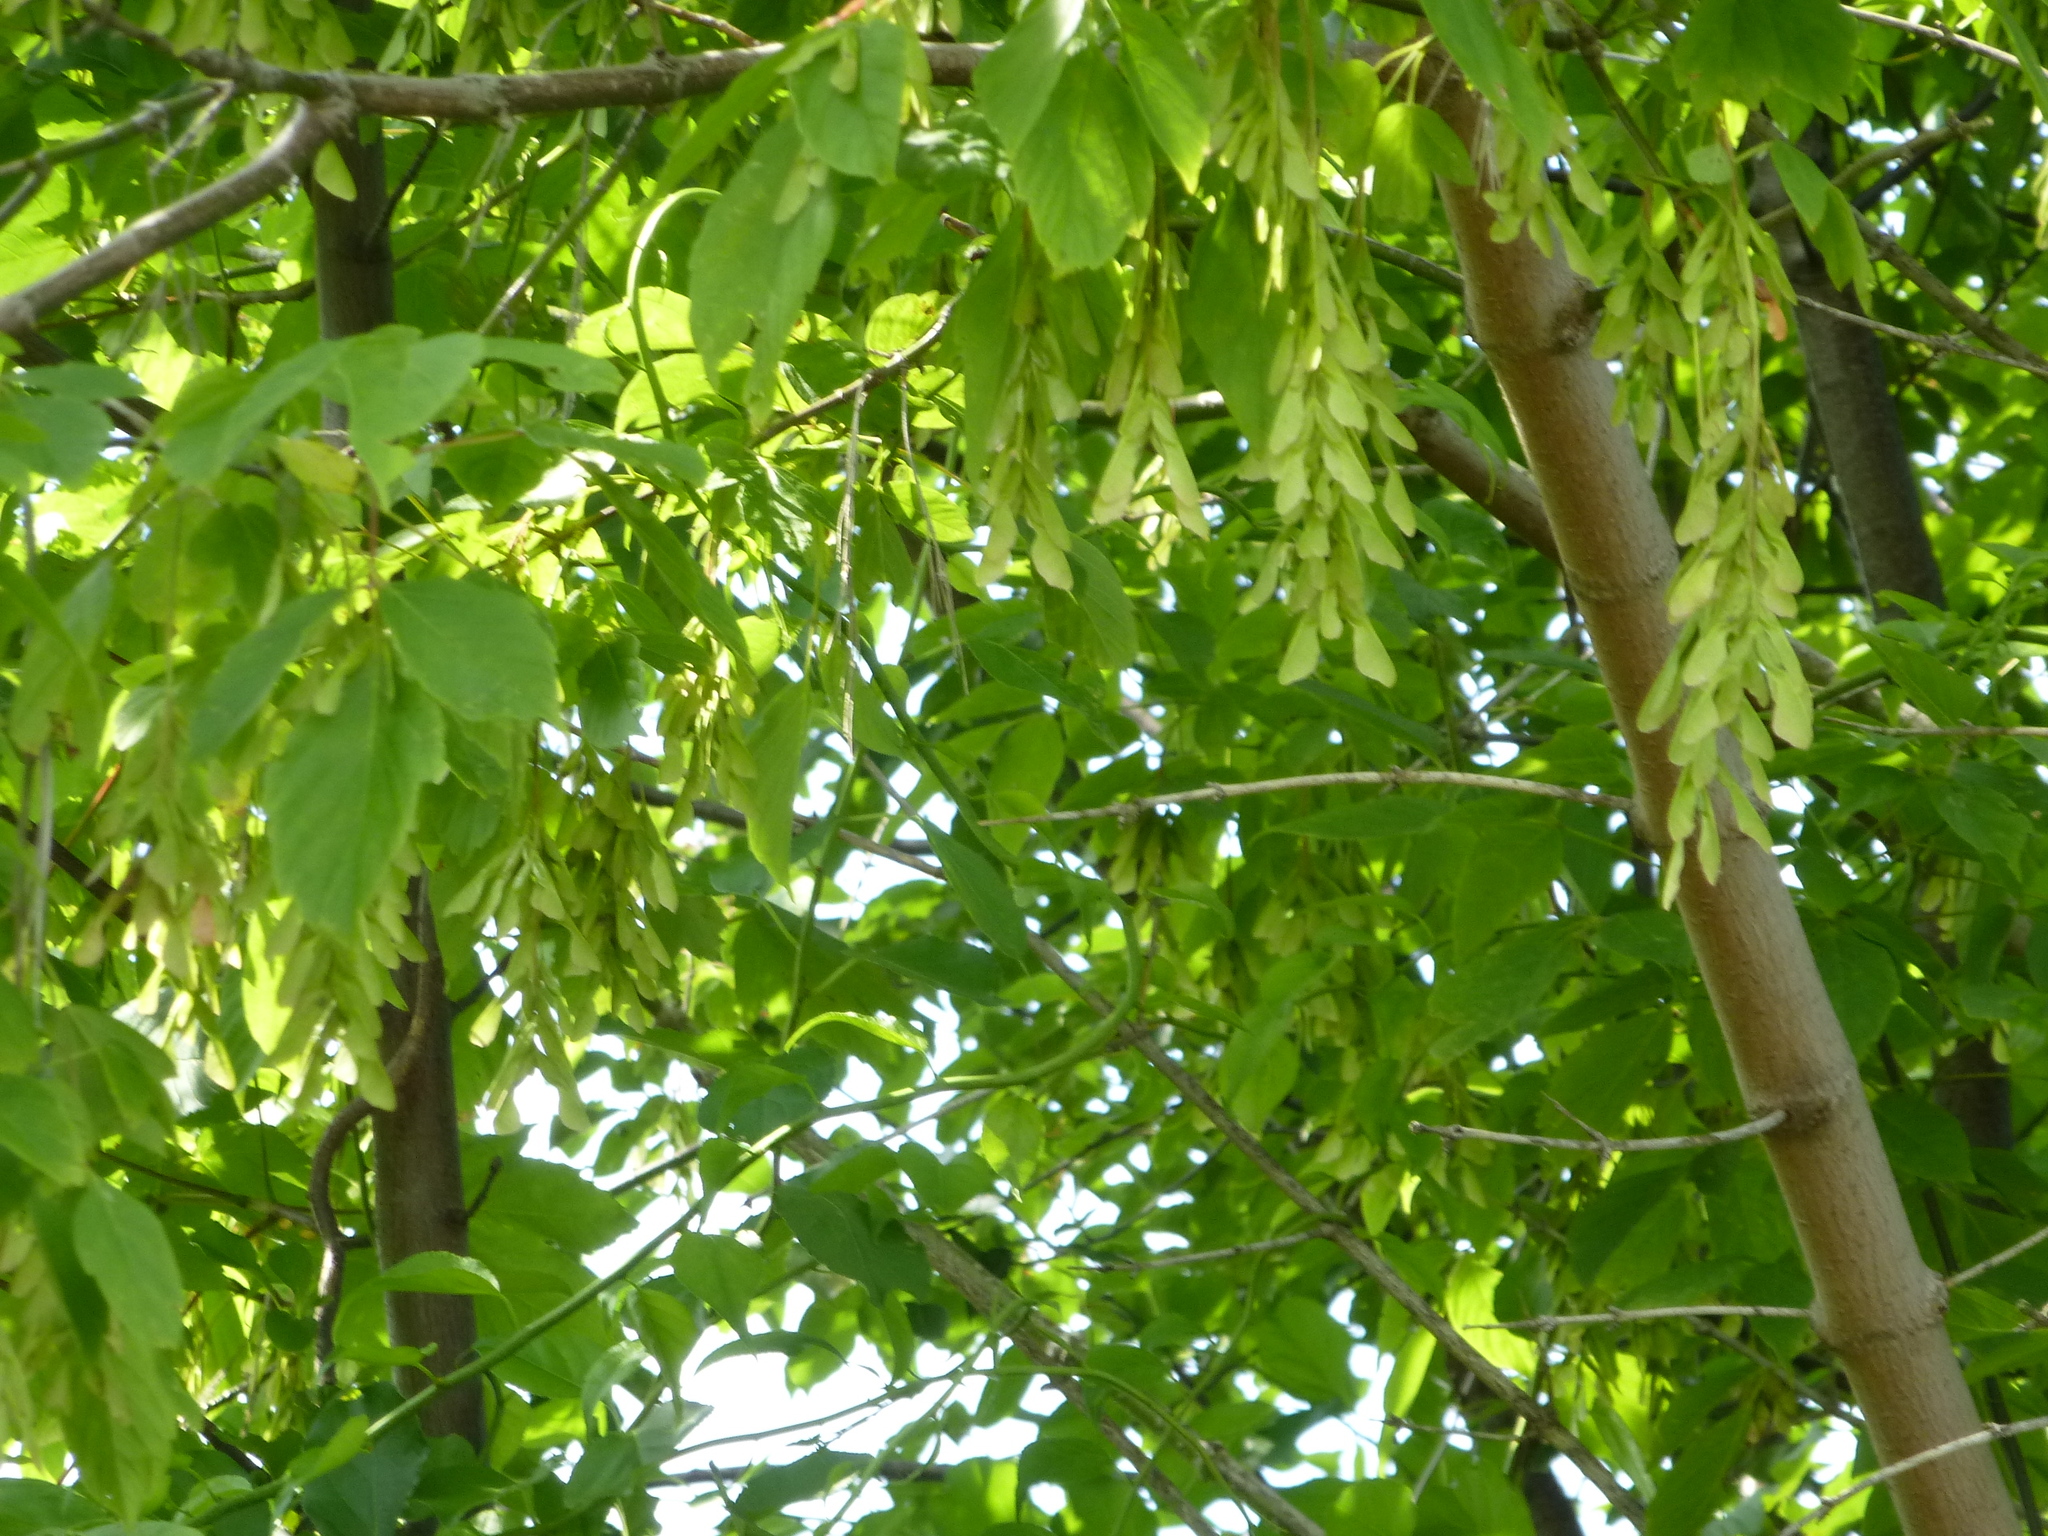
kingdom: Plantae
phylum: Tracheophyta
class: Magnoliopsida
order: Sapindales
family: Sapindaceae
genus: Acer
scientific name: Acer negundo
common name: Ashleaf maple
